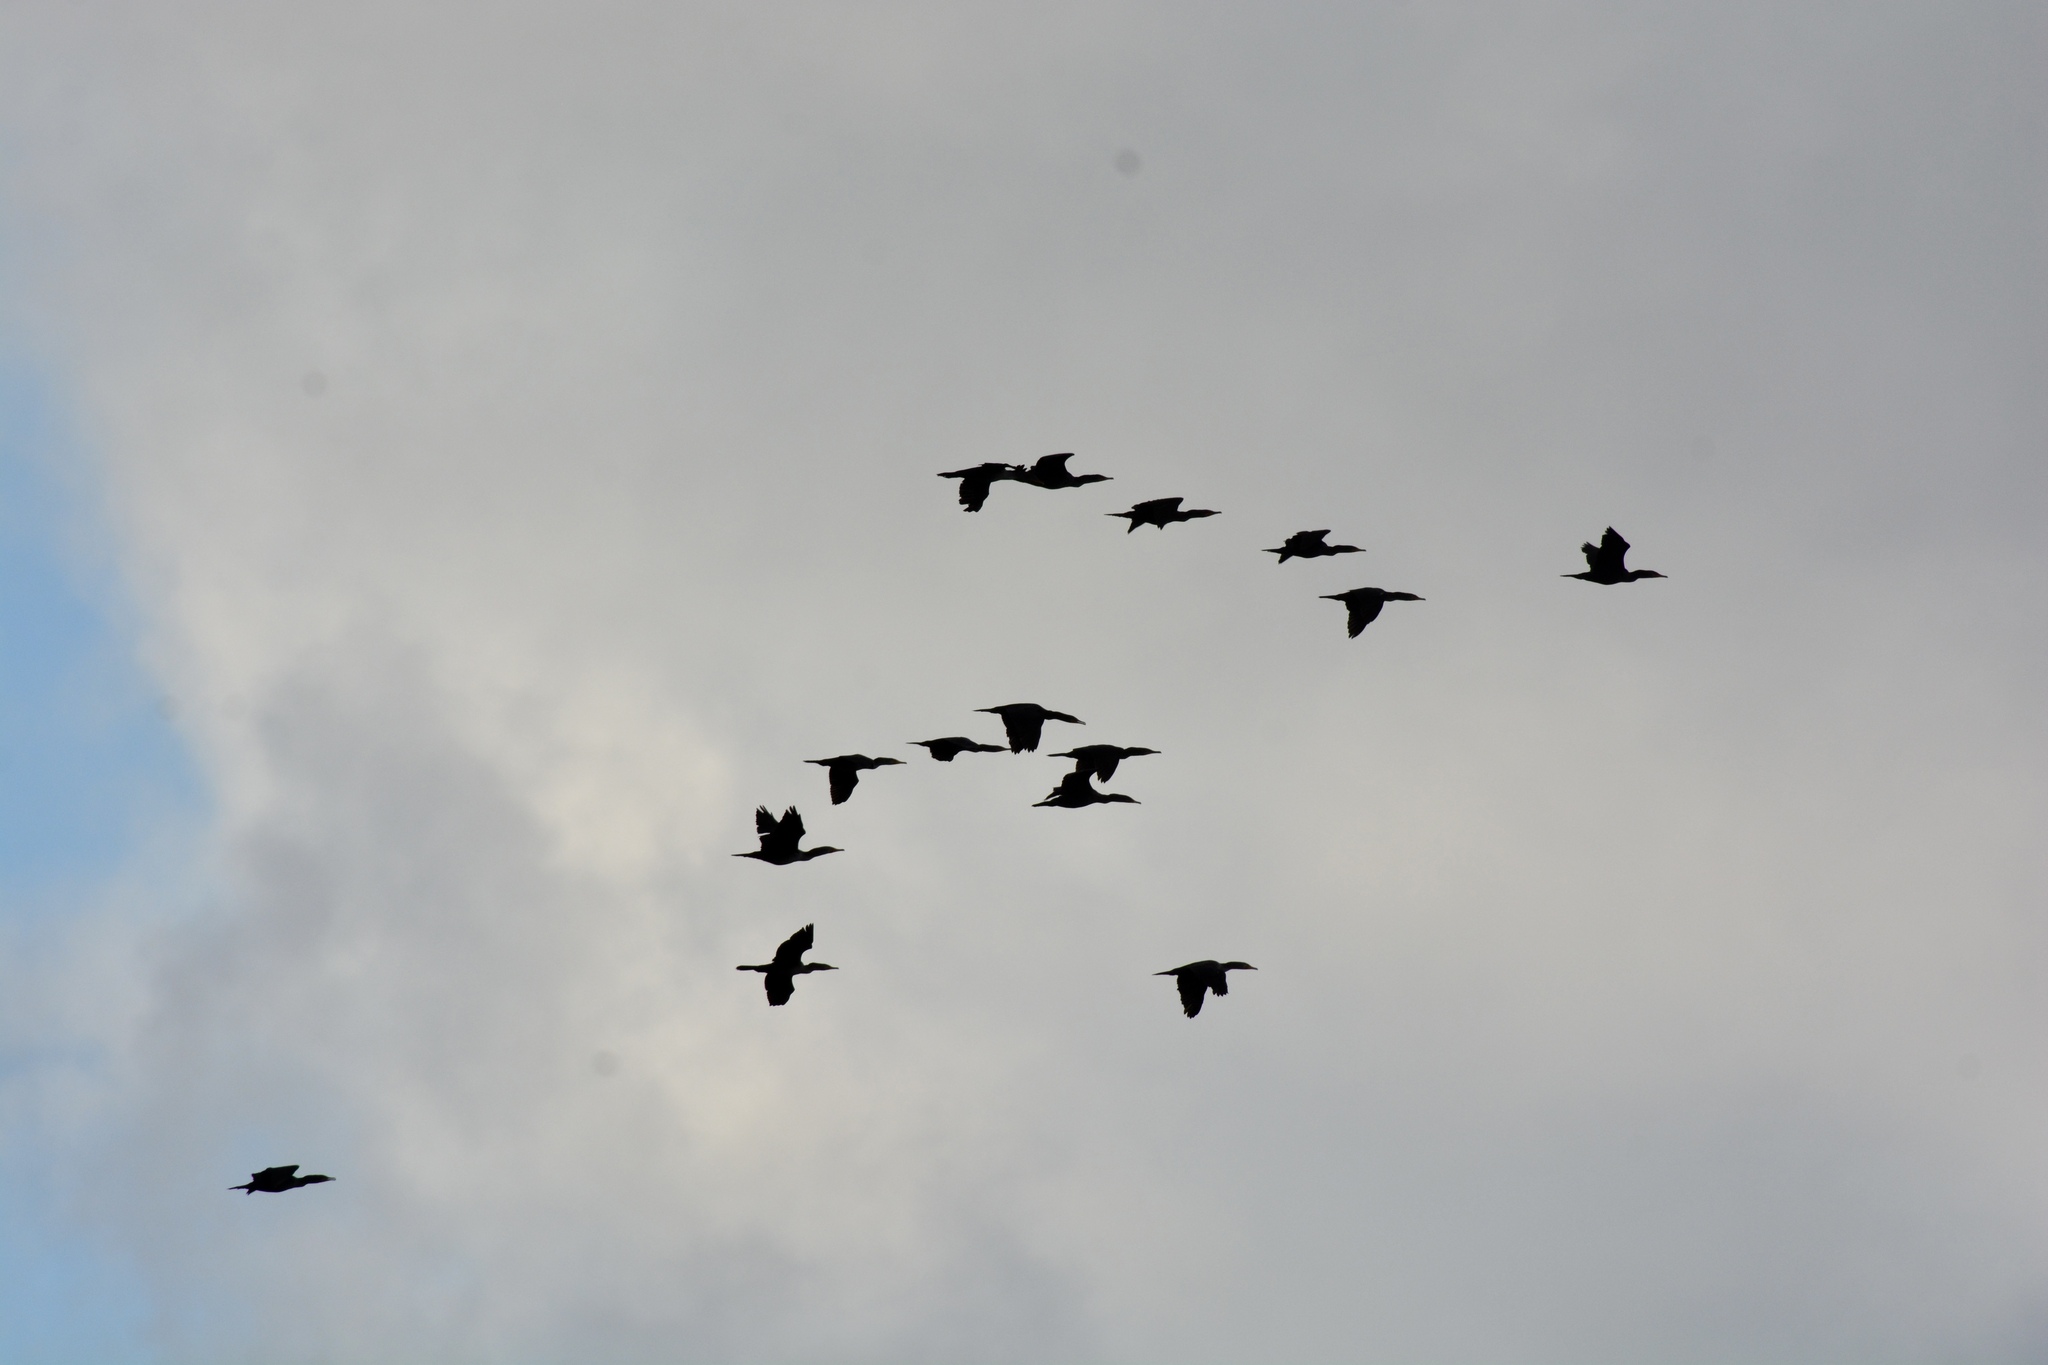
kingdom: Animalia
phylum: Chordata
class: Aves
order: Suliformes
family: Phalacrocoracidae
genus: Phalacrocorax
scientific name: Phalacrocorax auritus
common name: Double-crested cormorant
